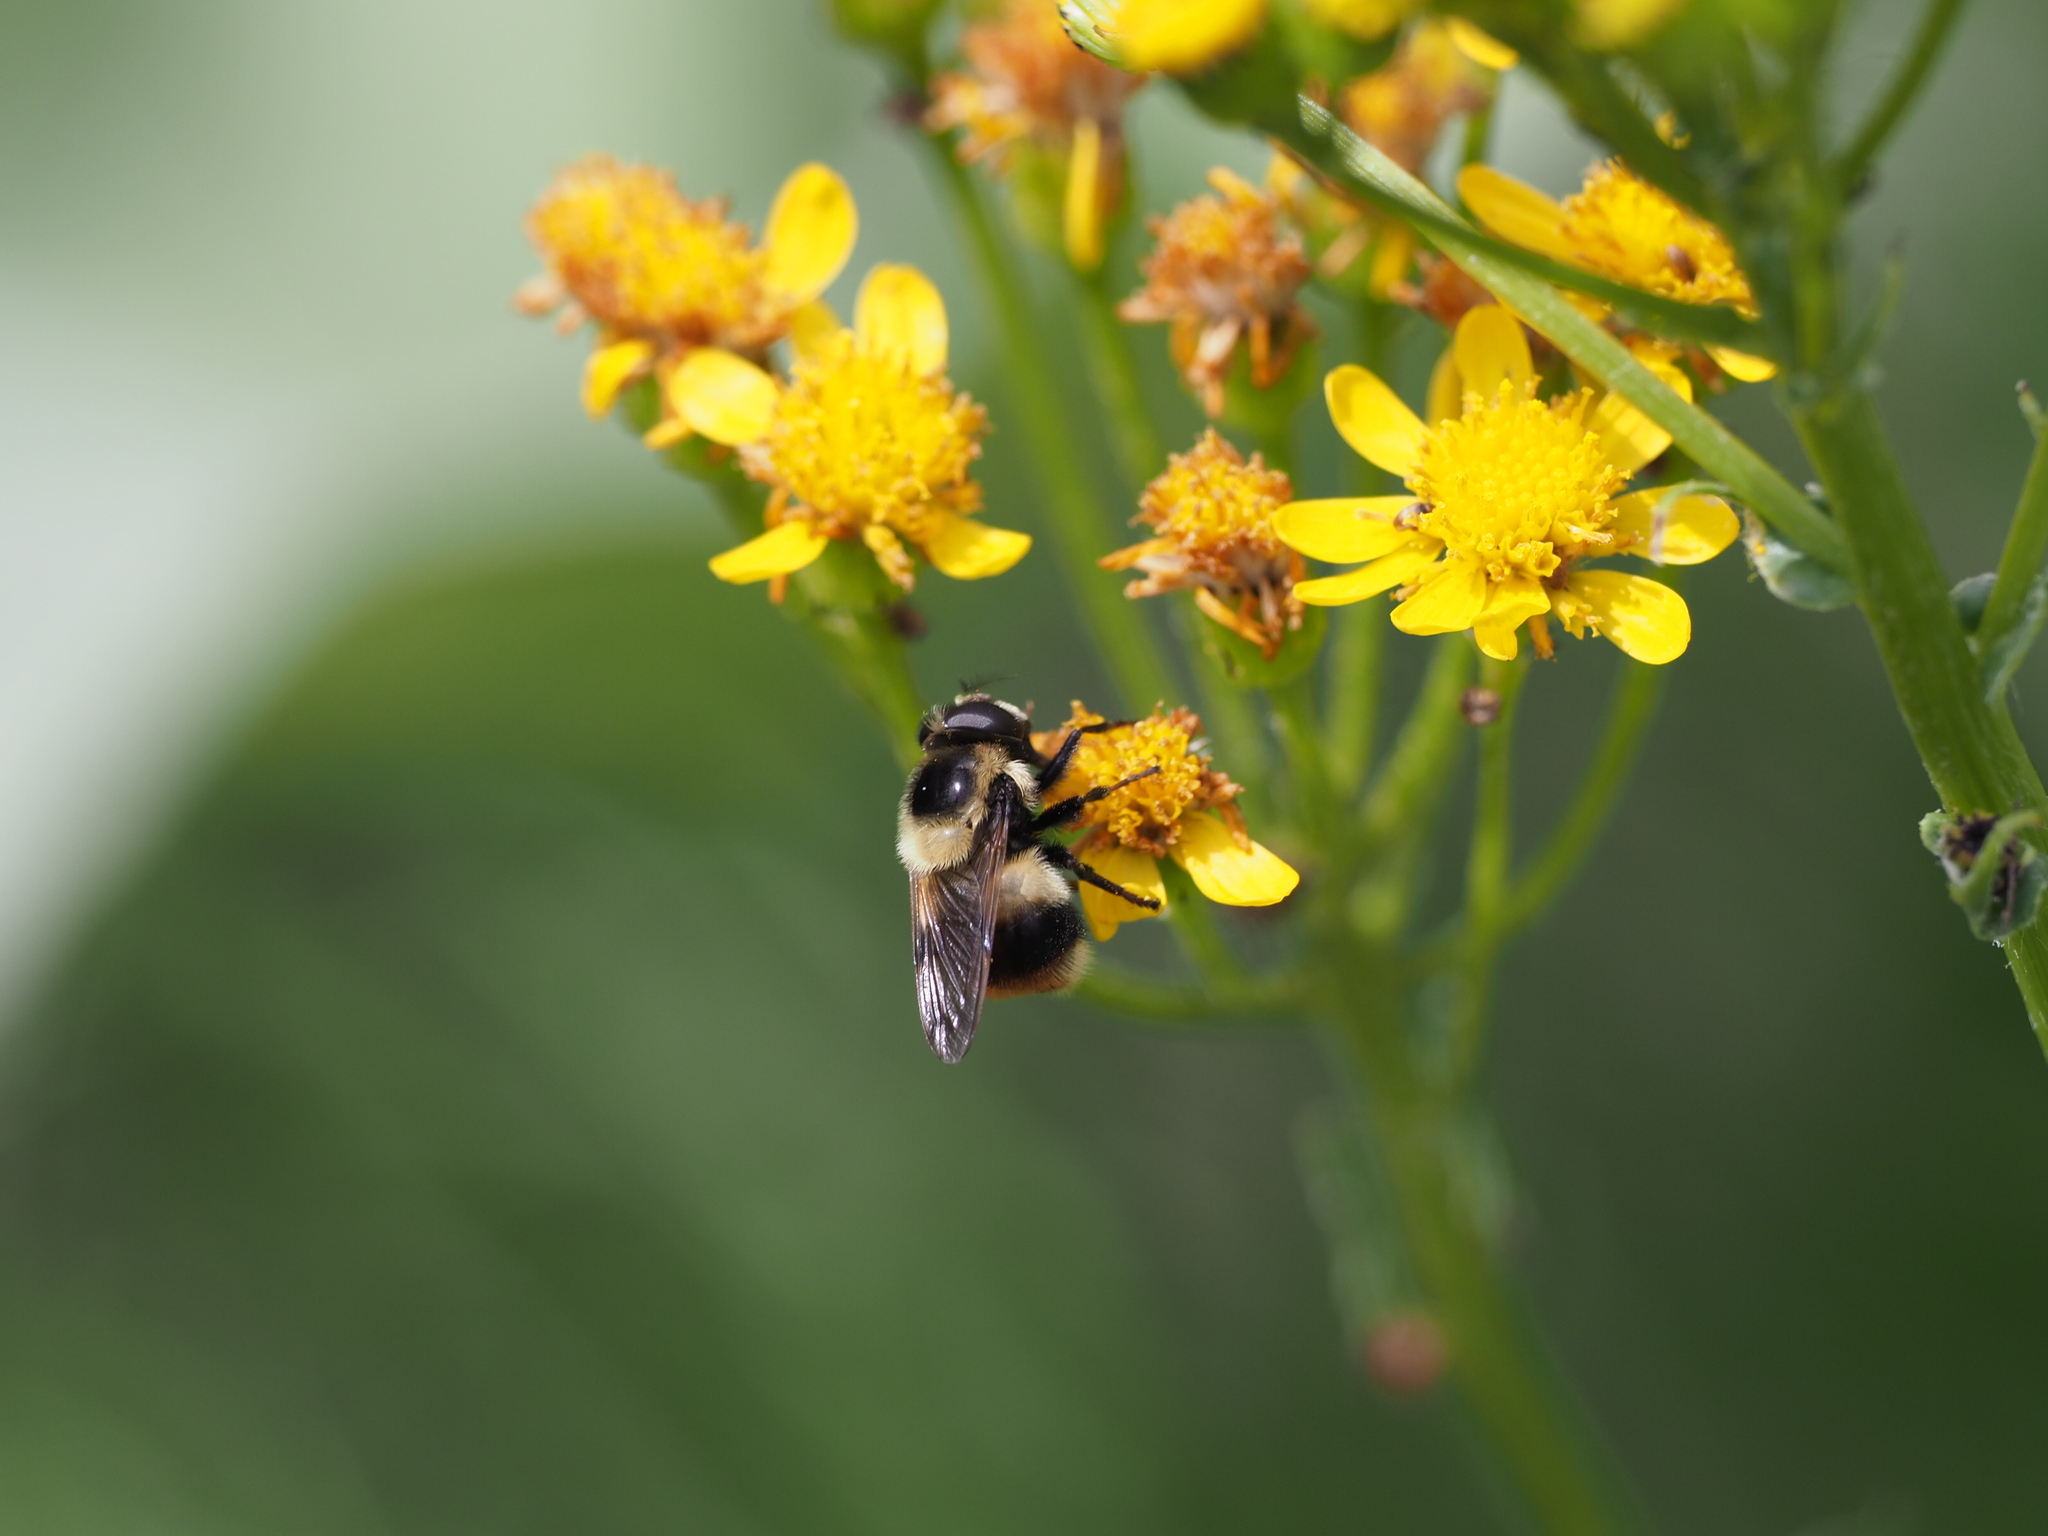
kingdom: Animalia
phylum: Arthropoda
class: Insecta
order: Diptera
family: Syrphidae
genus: Volucella
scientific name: Volucella facialis
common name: Yellow-faced swiftwing
